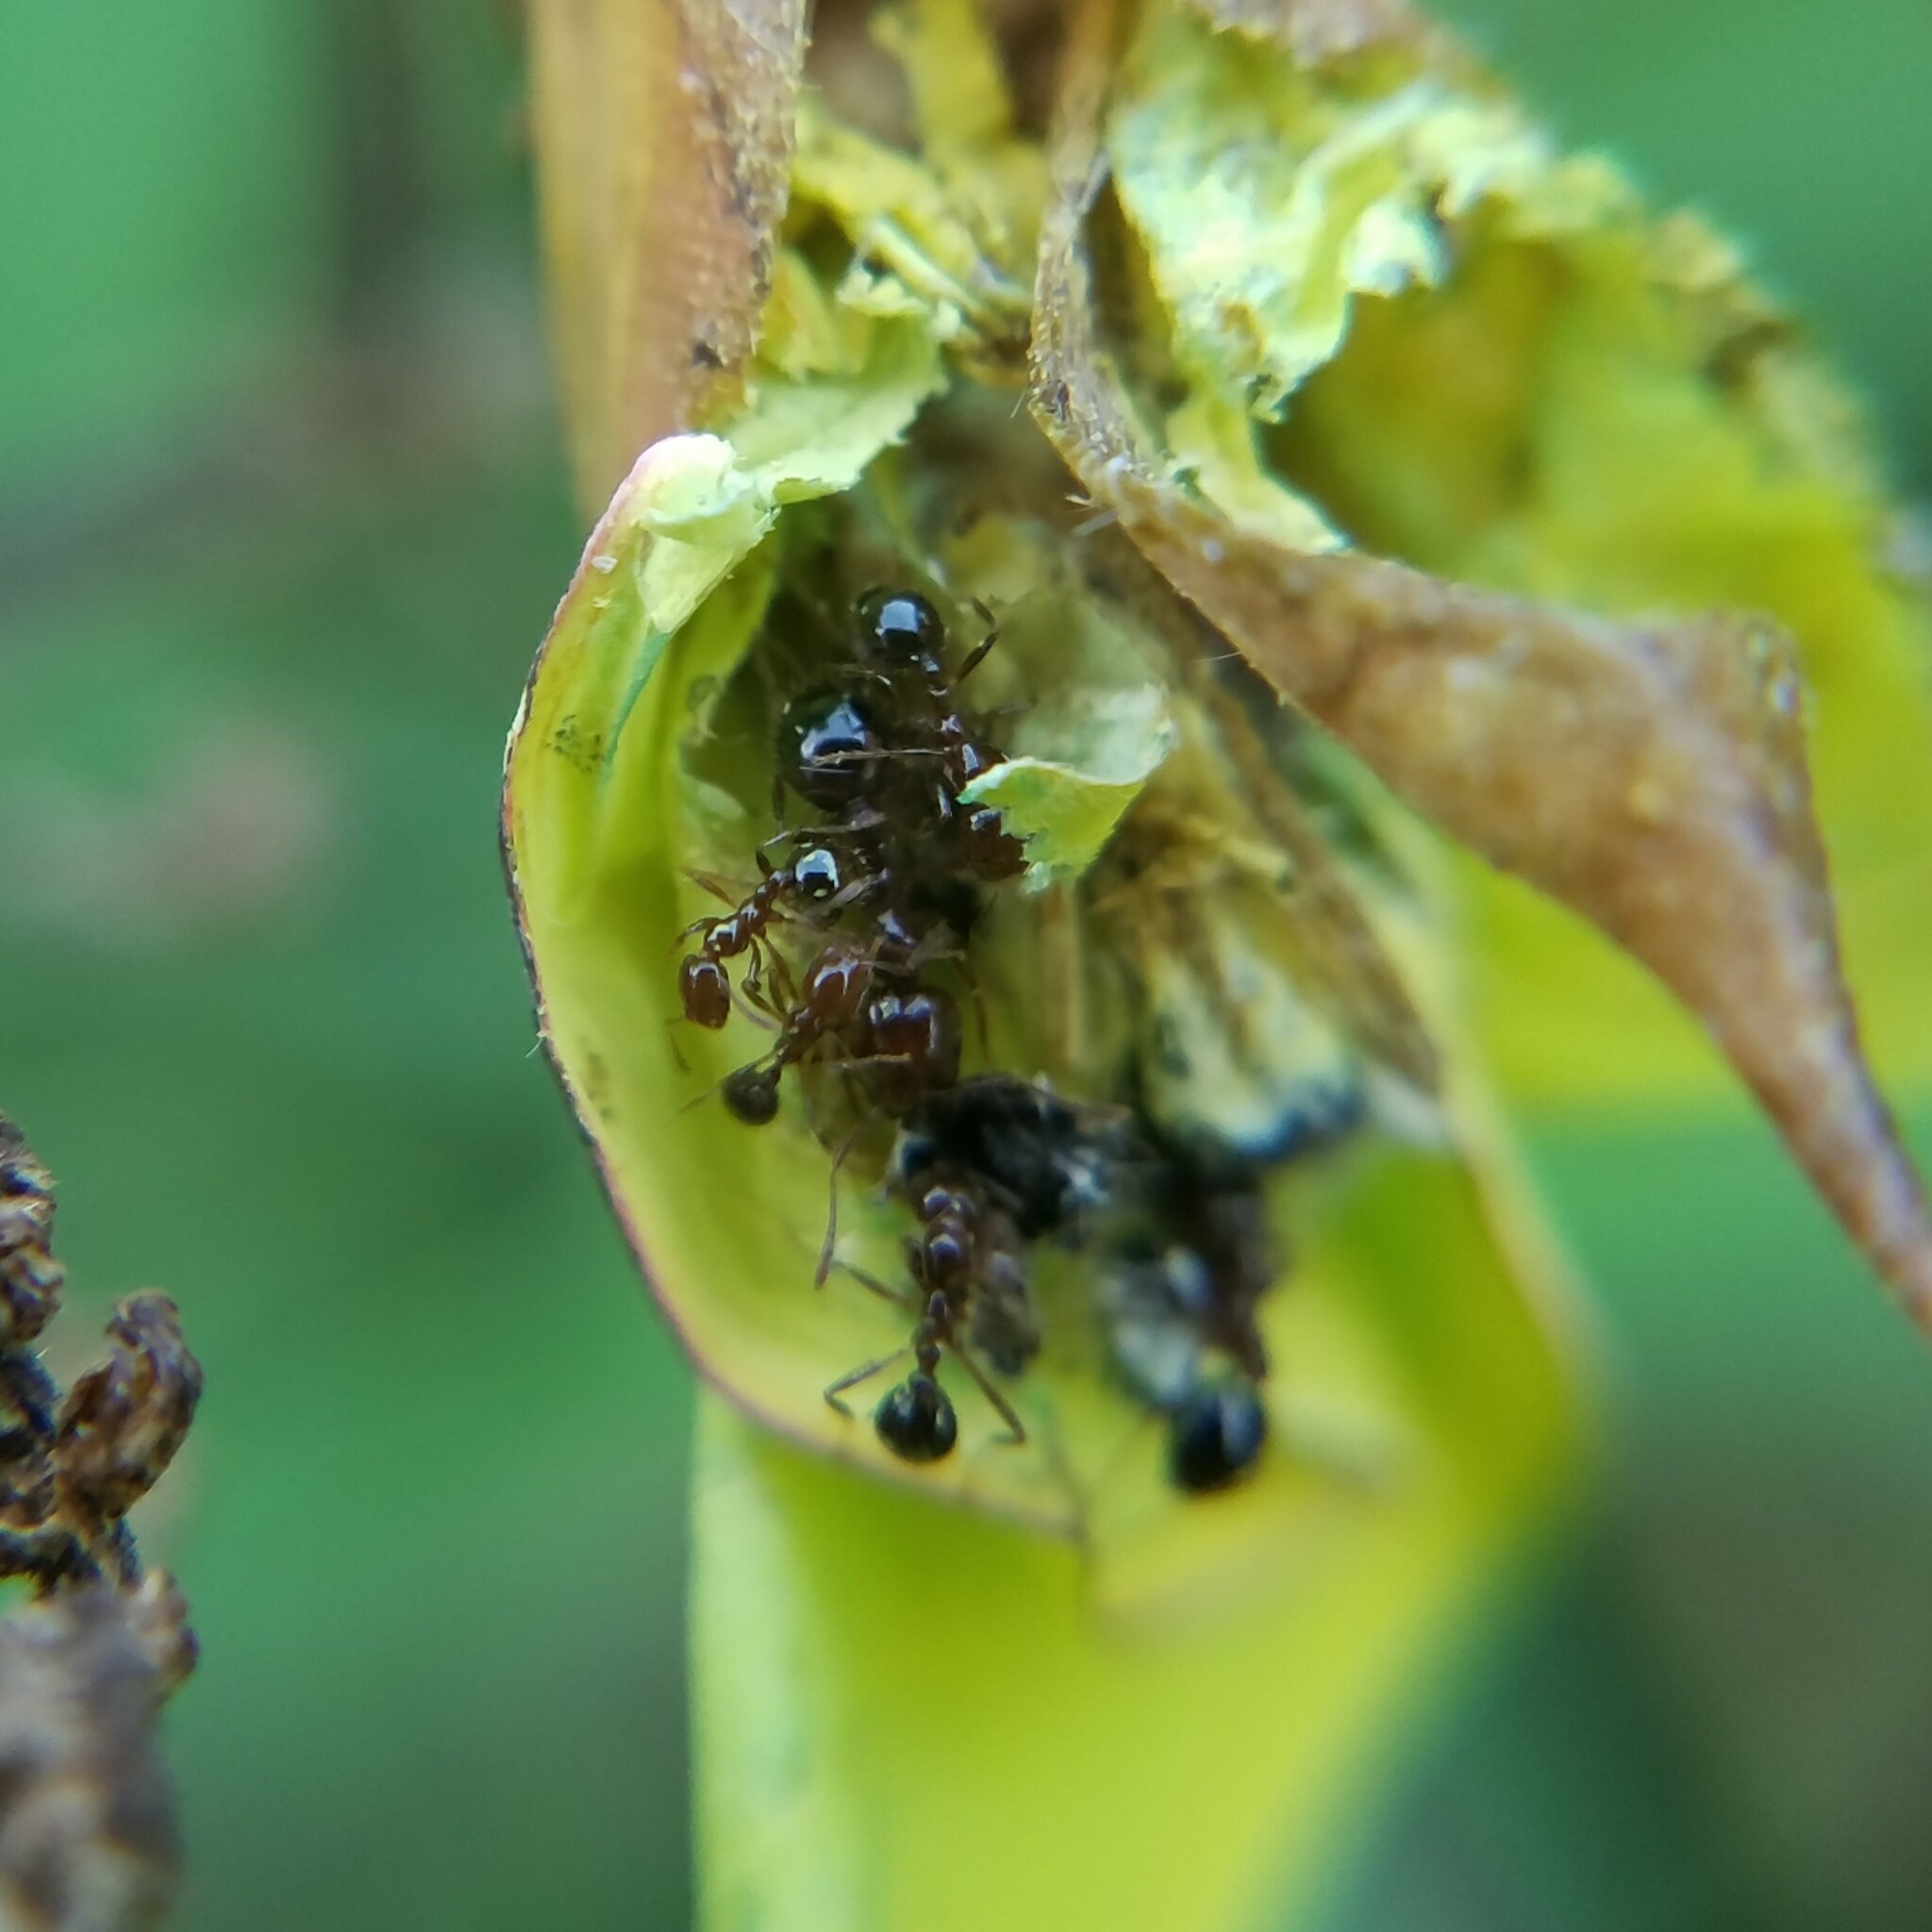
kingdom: Animalia
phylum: Arthropoda
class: Insecta
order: Hymenoptera
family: Formicidae
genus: Solenopsis
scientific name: Solenopsis
